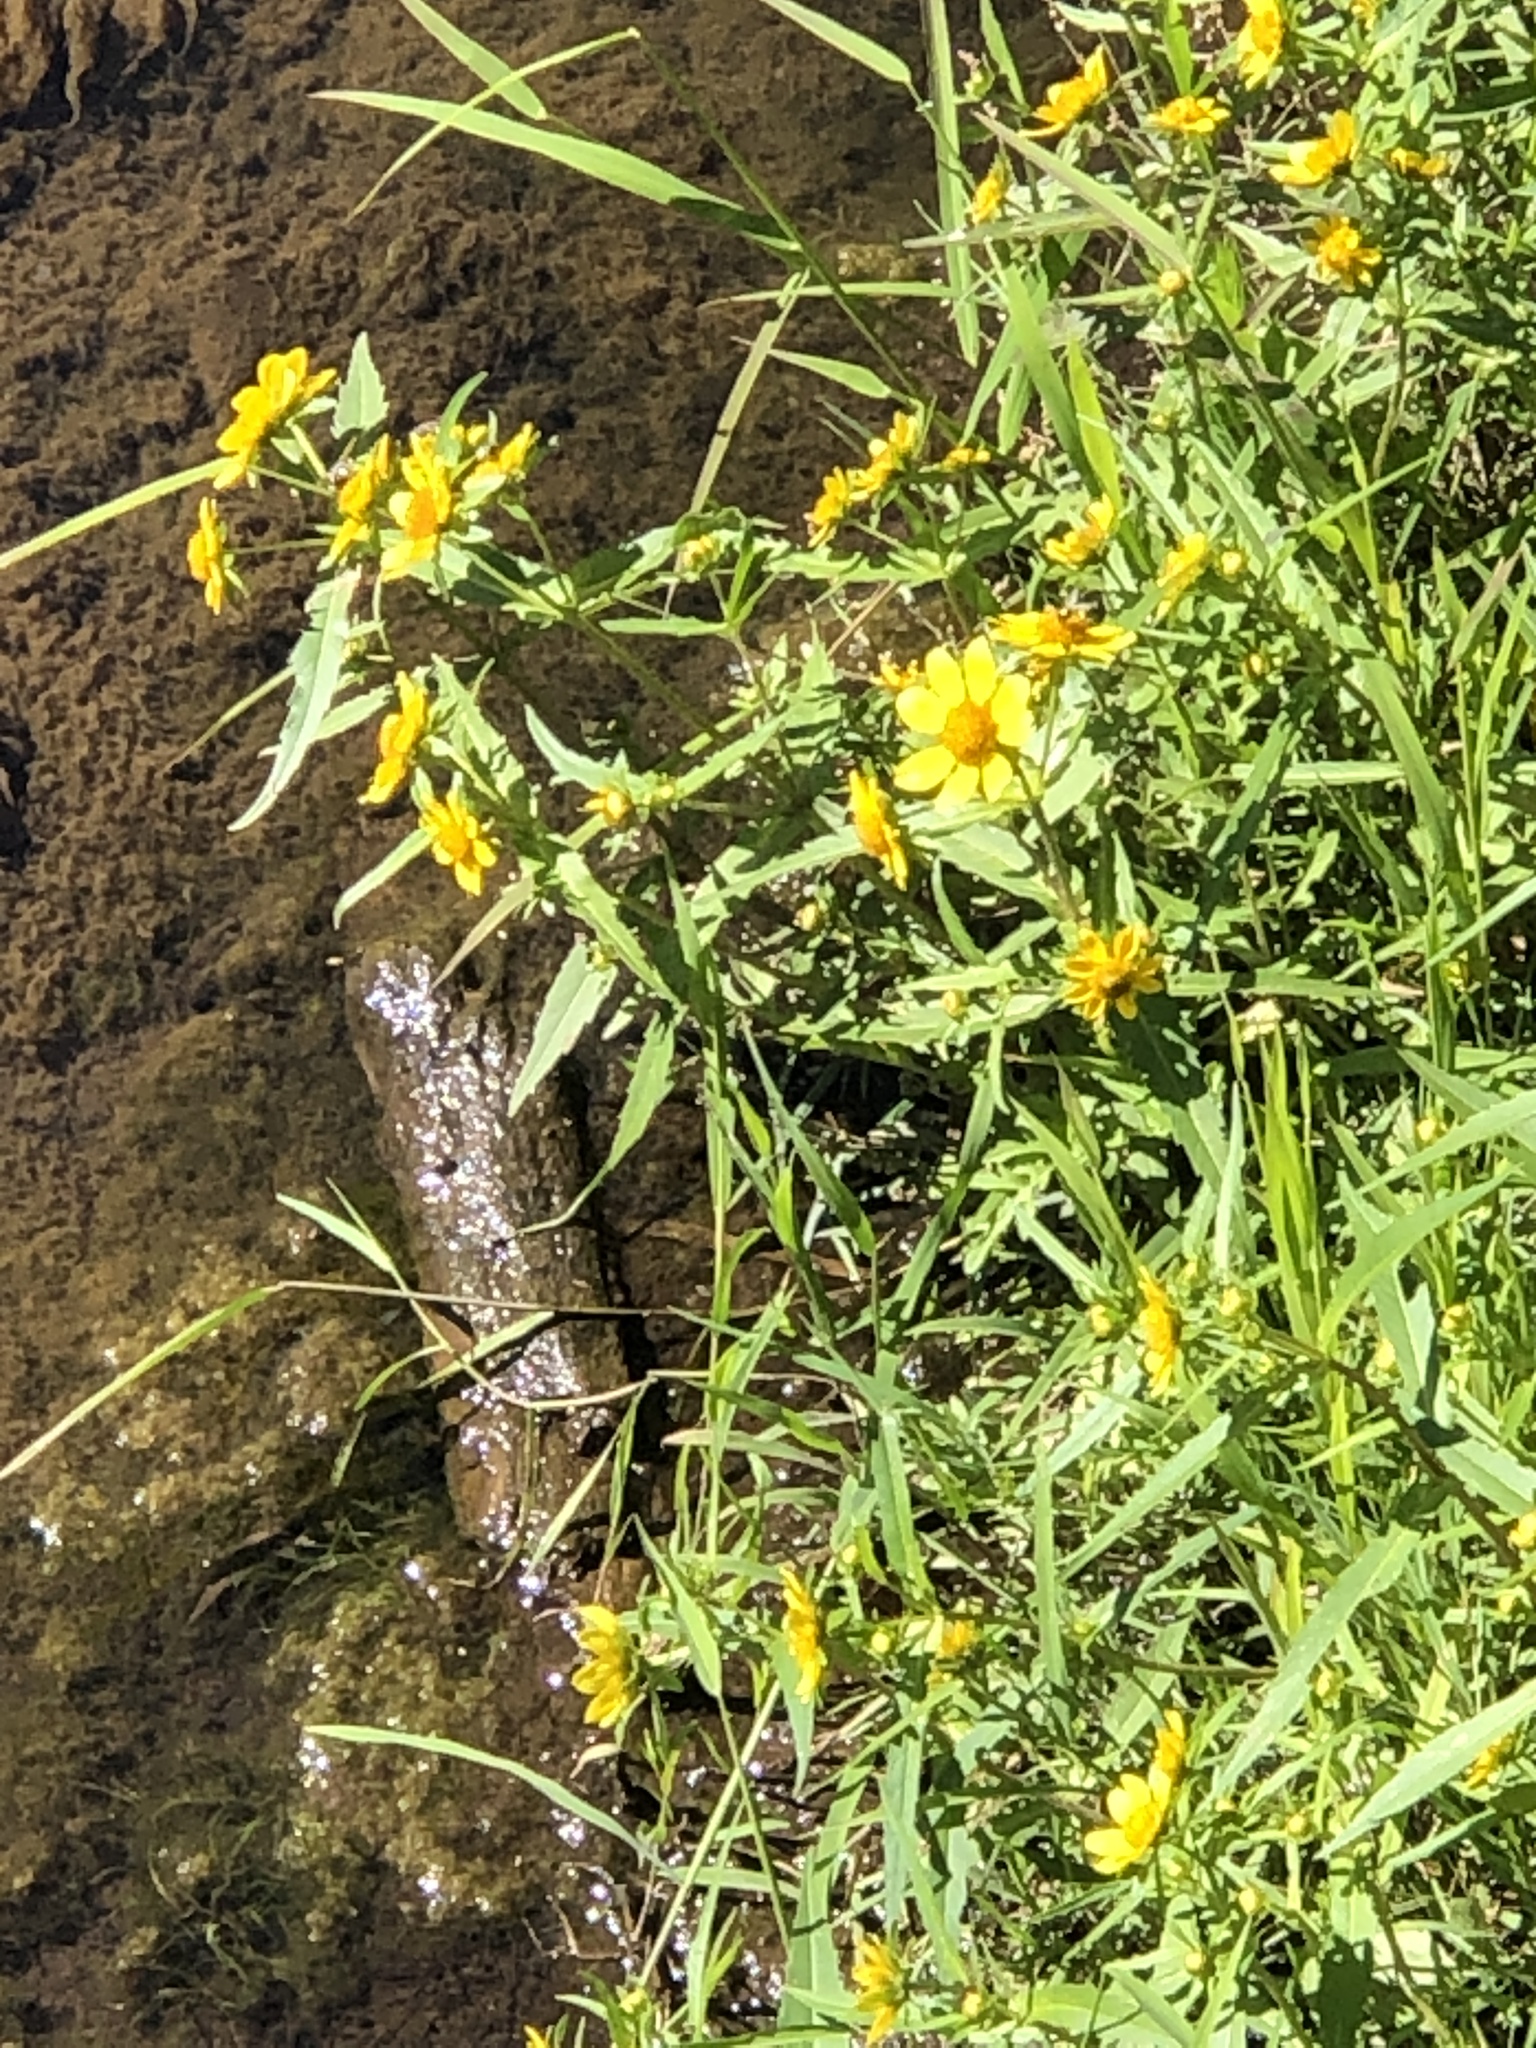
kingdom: Plantae
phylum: Tracheophyta
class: Magnoliopsida
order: Asterales
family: Asteraceae
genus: Bidens
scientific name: Bidens cernua
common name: Nodding bur-marigold
